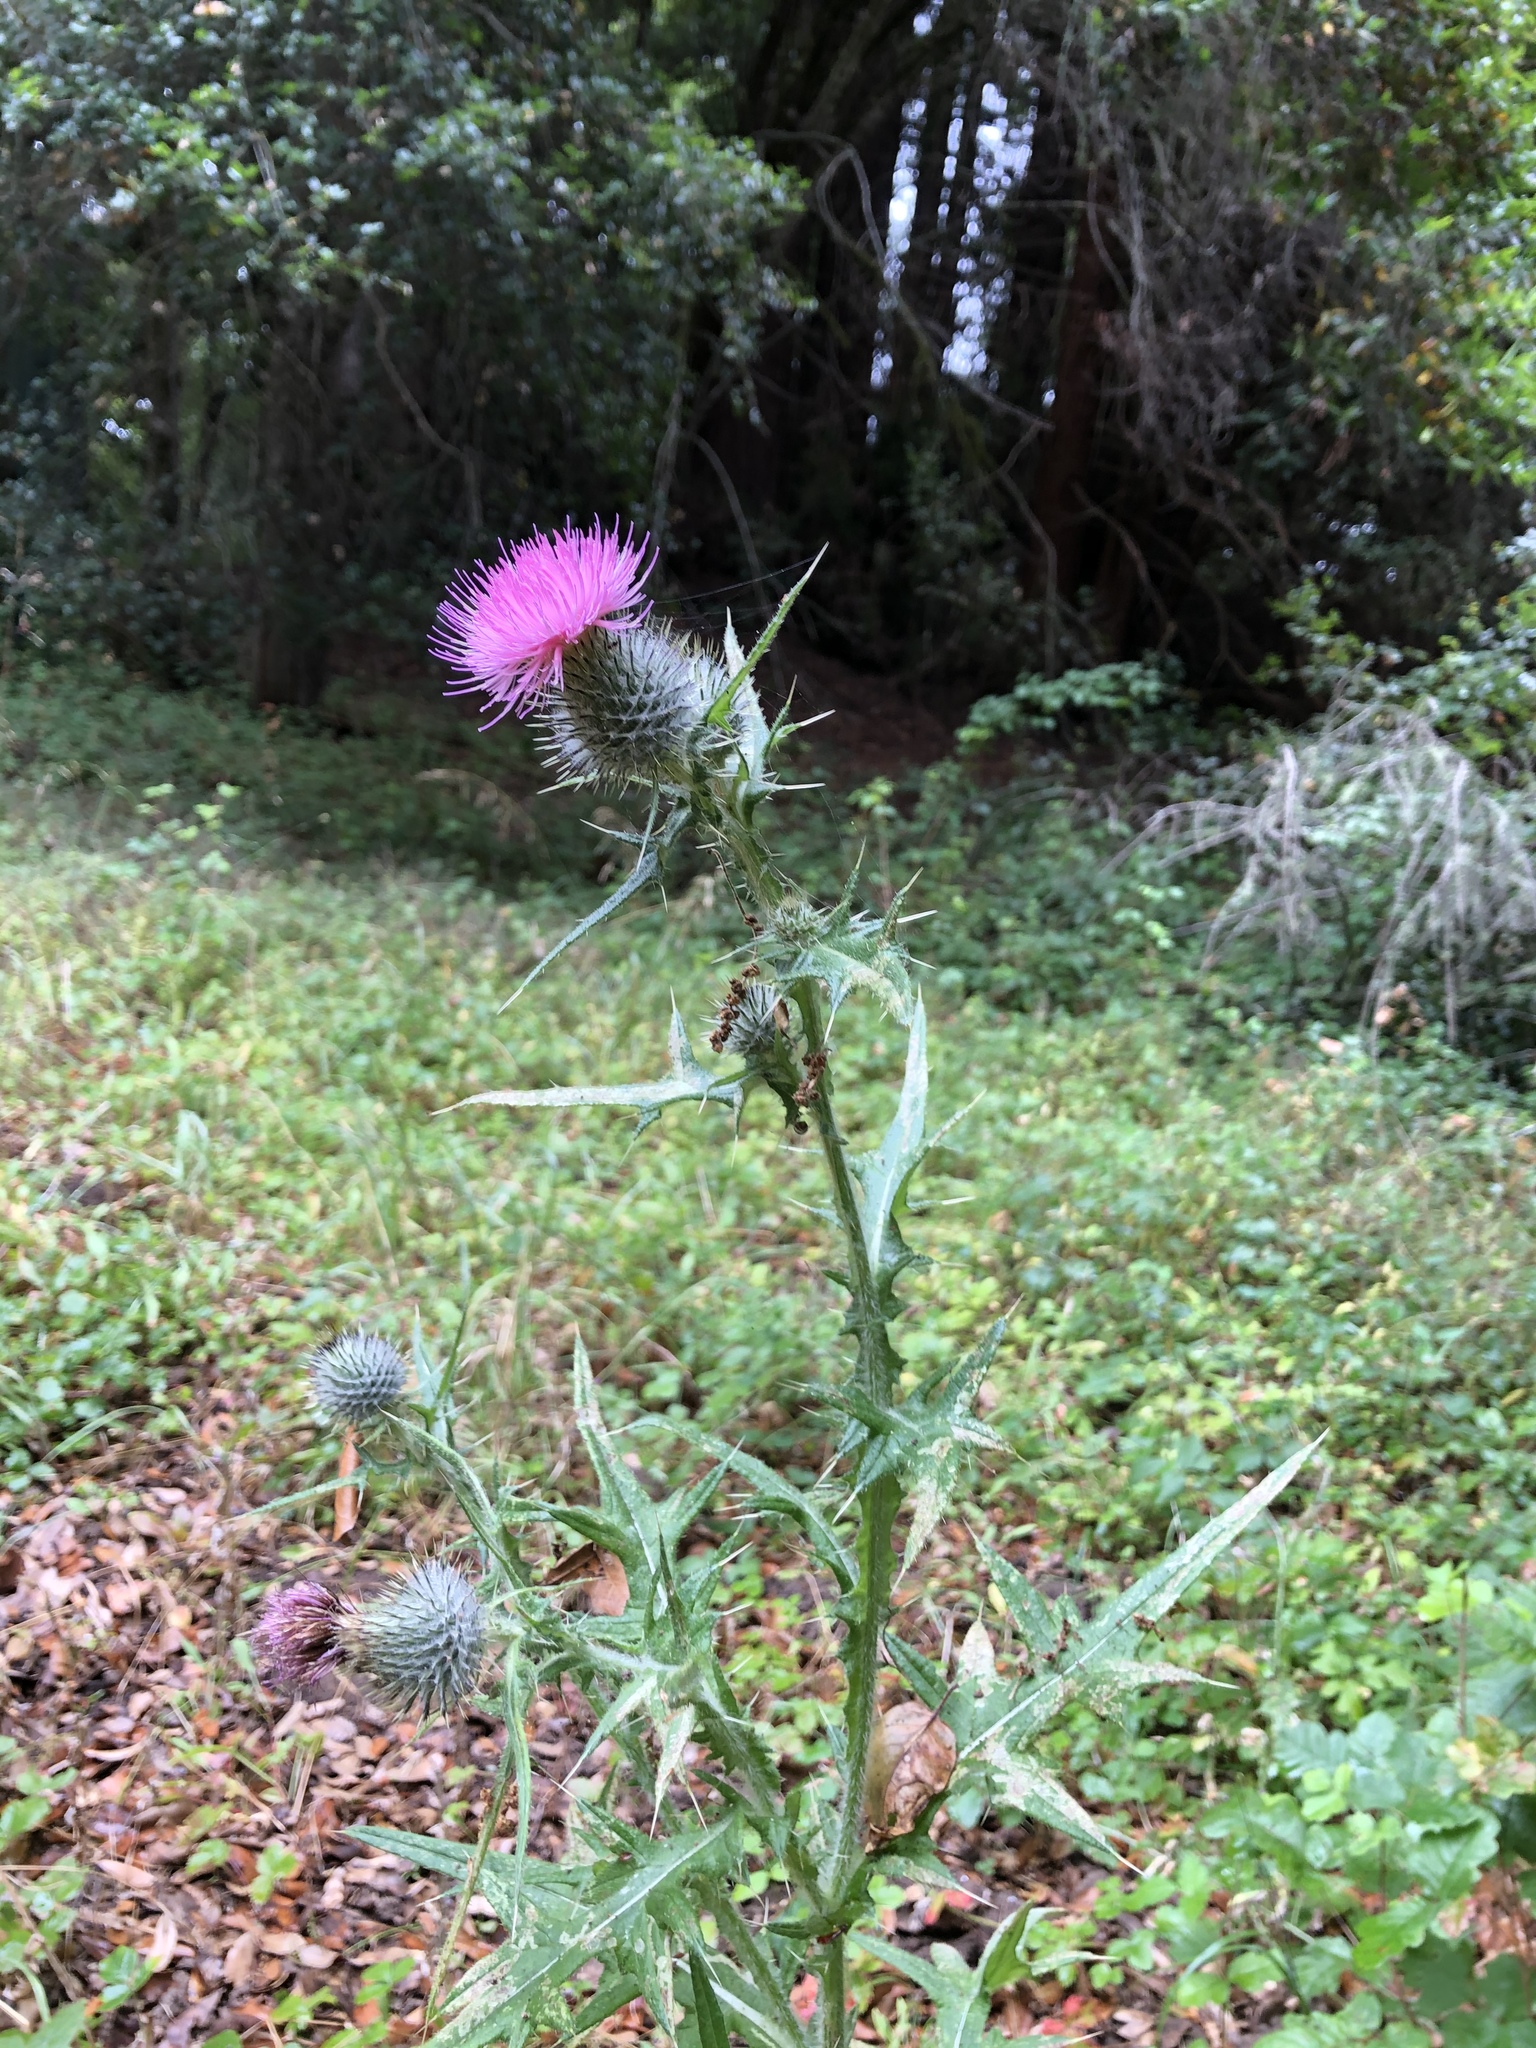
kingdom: Plantae
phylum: Tracheophyta
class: Magnoliopsida
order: Asterales
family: Asteraceae
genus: Cirsium
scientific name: Cirsium vulgare
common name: Bull thistle
